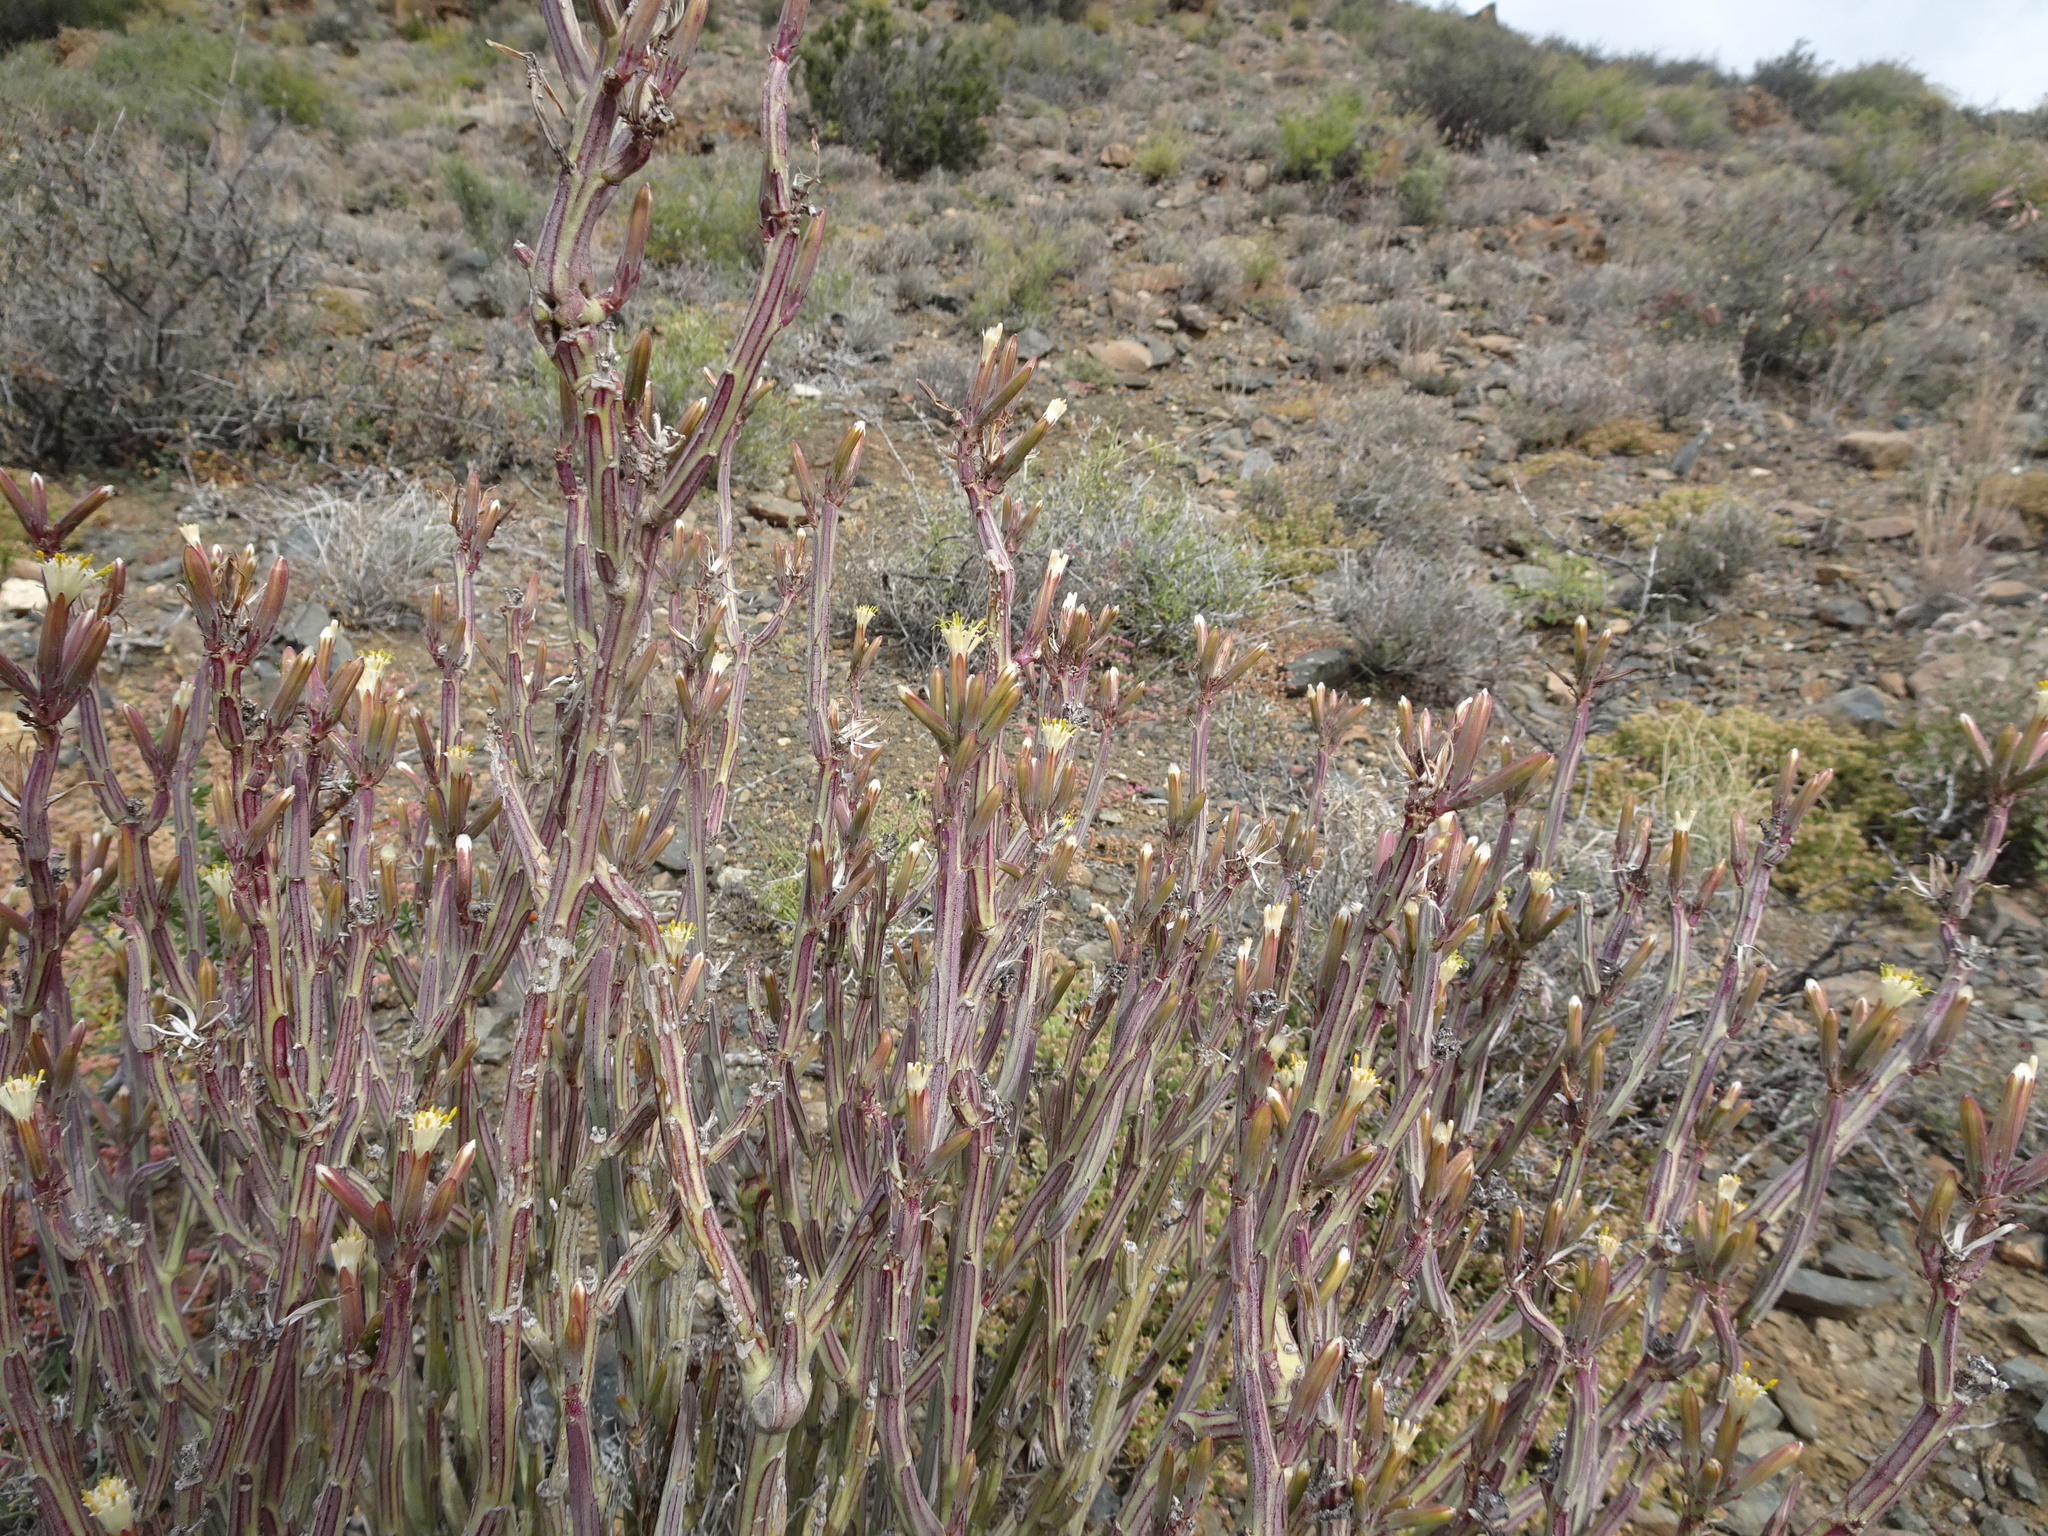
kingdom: Plantae
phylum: Tracheophyta
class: Magnoliopsida
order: Asterales
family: Asteraceae
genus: Curio
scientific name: Curio avasimontanus
